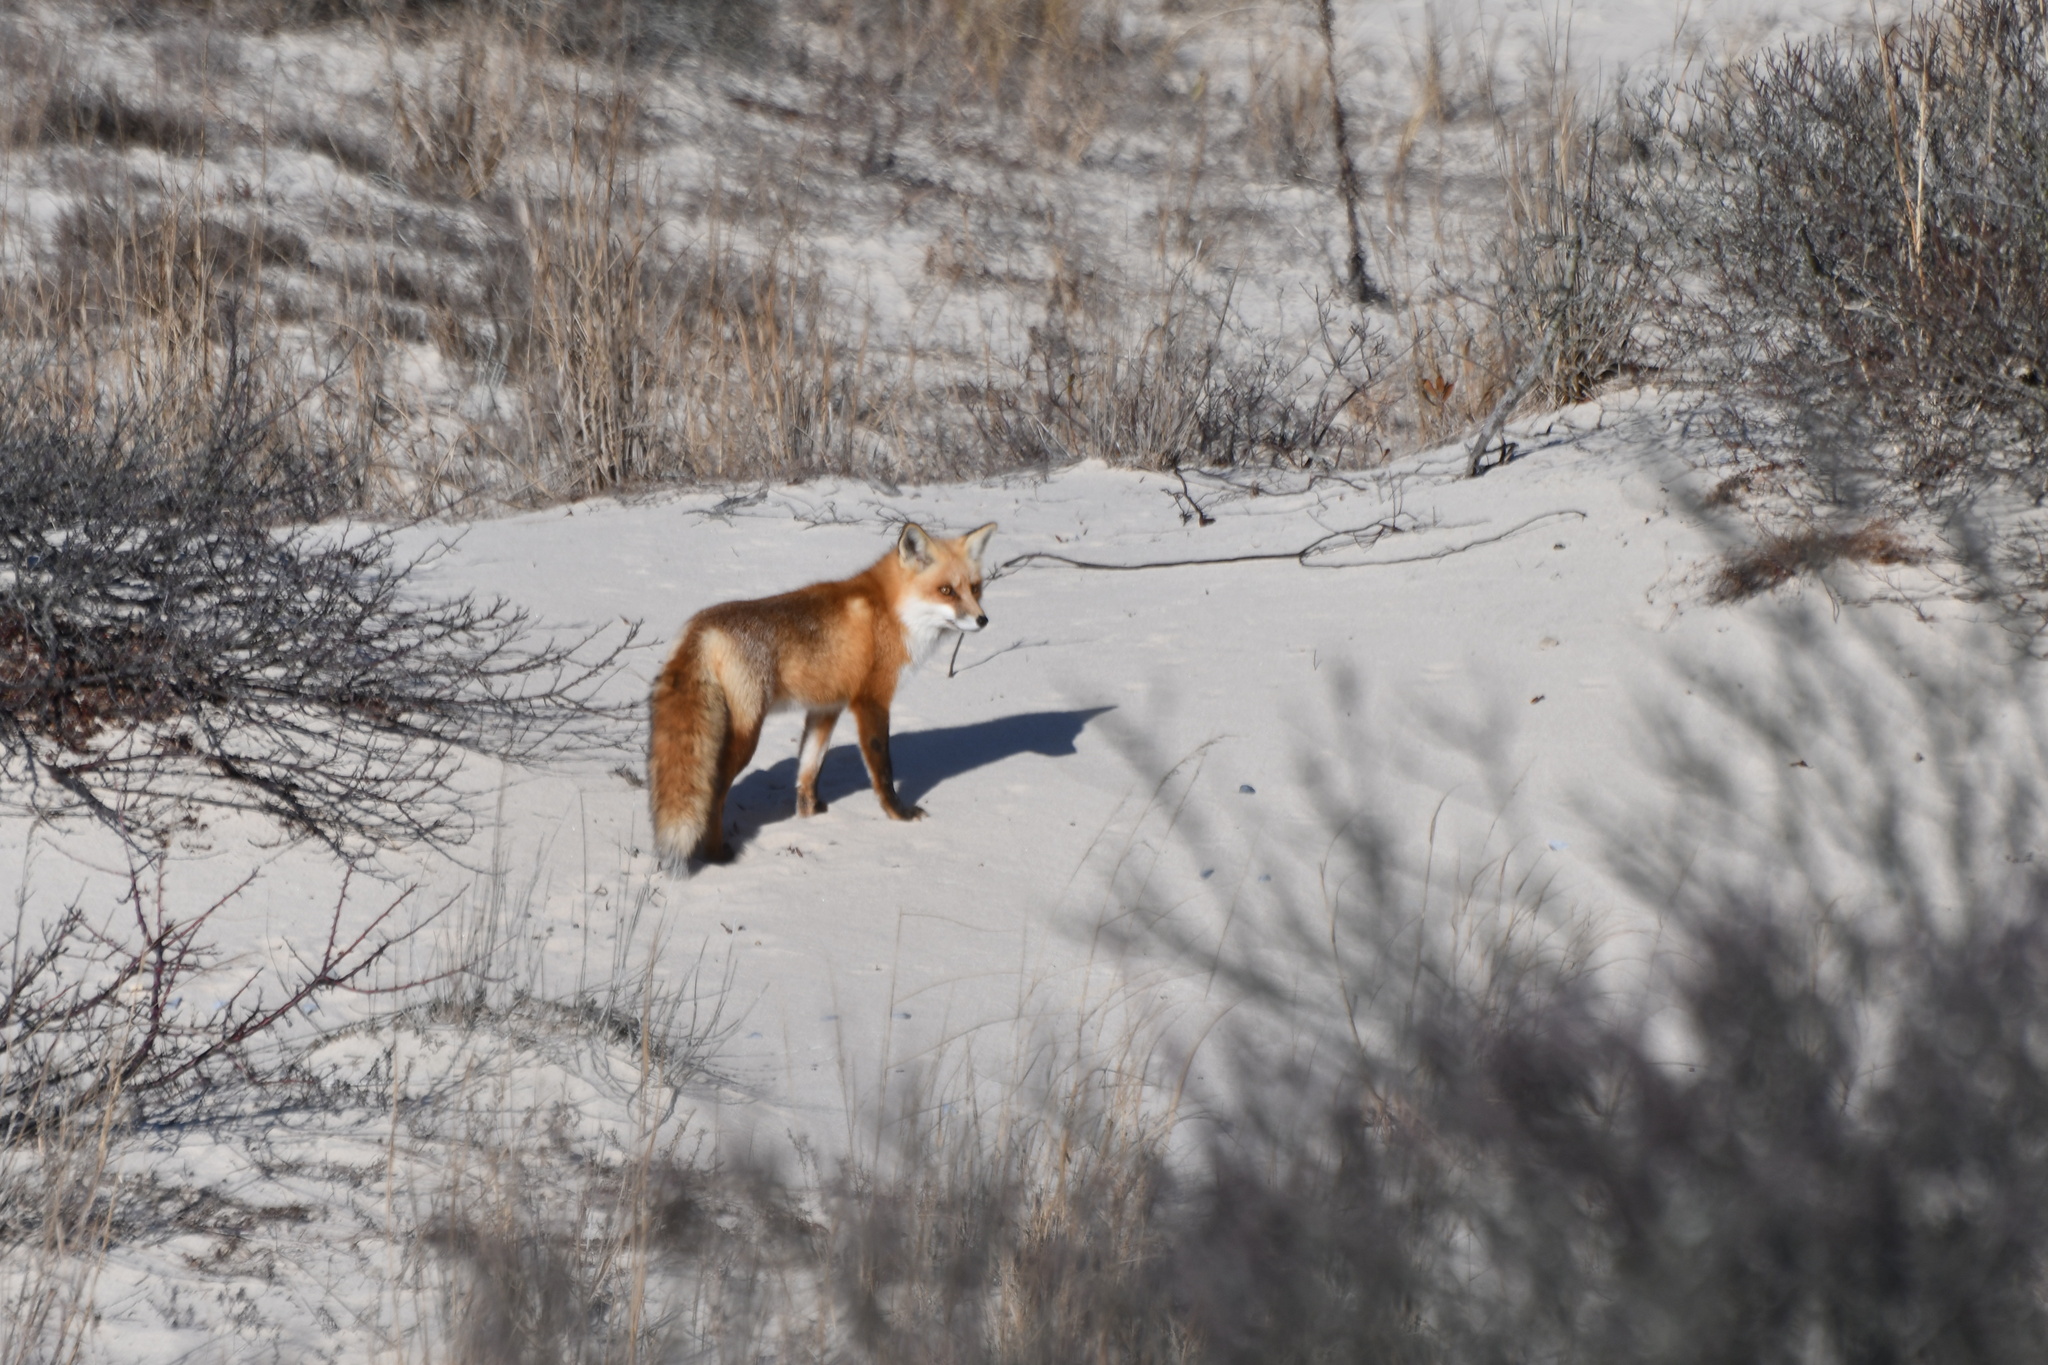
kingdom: Animalia
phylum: Chordata
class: Mammalia
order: Carnivora
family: Canidae
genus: Vulpes
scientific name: Vulpes vulpes
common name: Red fox
